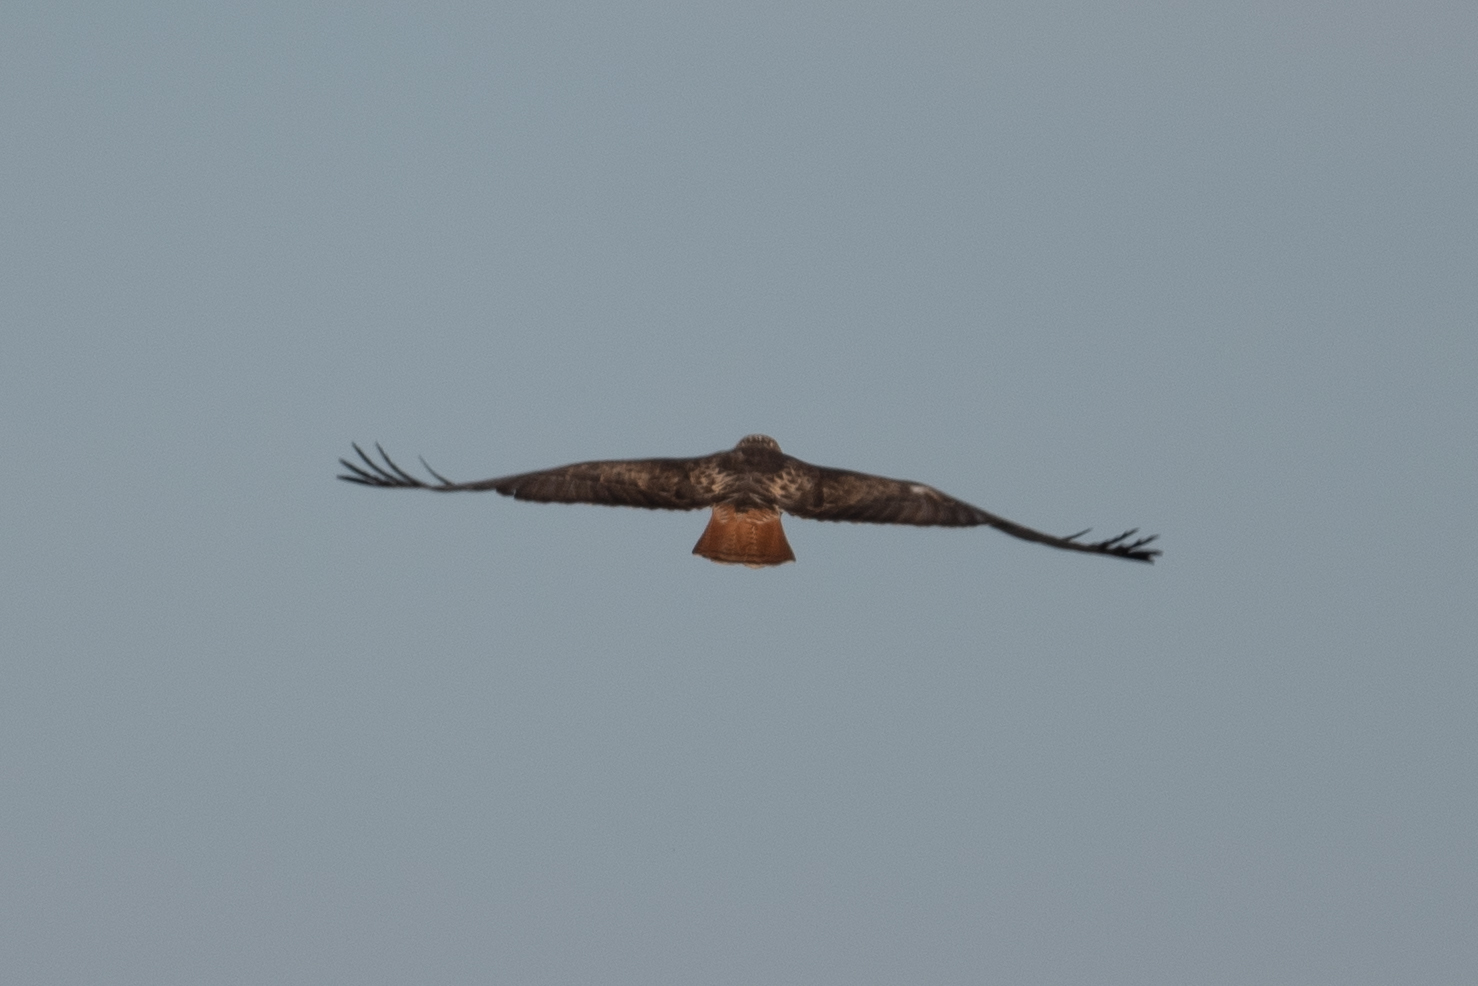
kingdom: Animalia
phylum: Chordata
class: Aves
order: Accipitriformes
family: Accipitridae
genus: Buteo
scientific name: Buteo jamaicensis
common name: Red-tailed hawk
